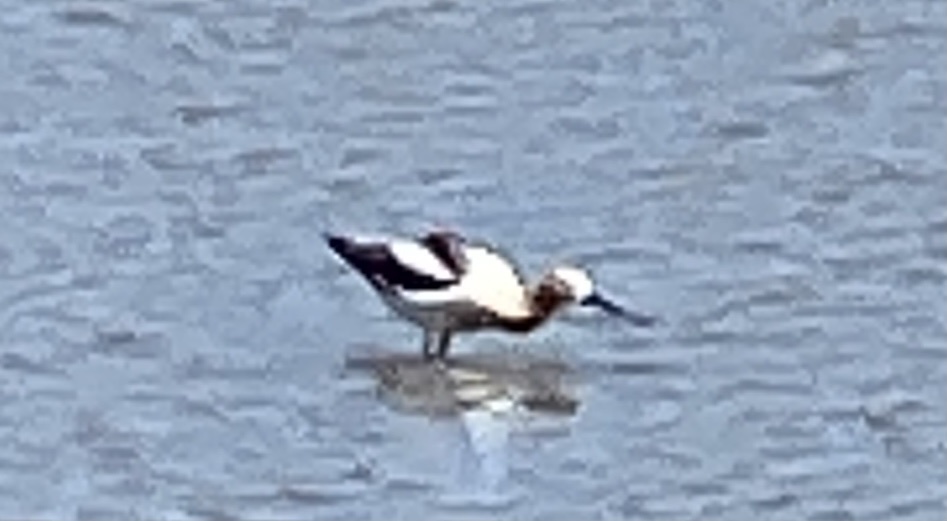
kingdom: Animalia
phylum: Chordata
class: Aves
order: Charadriiformes
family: Recurvirostridae
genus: Recurvirostra
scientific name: Recurvirostra americana
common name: American avocet
